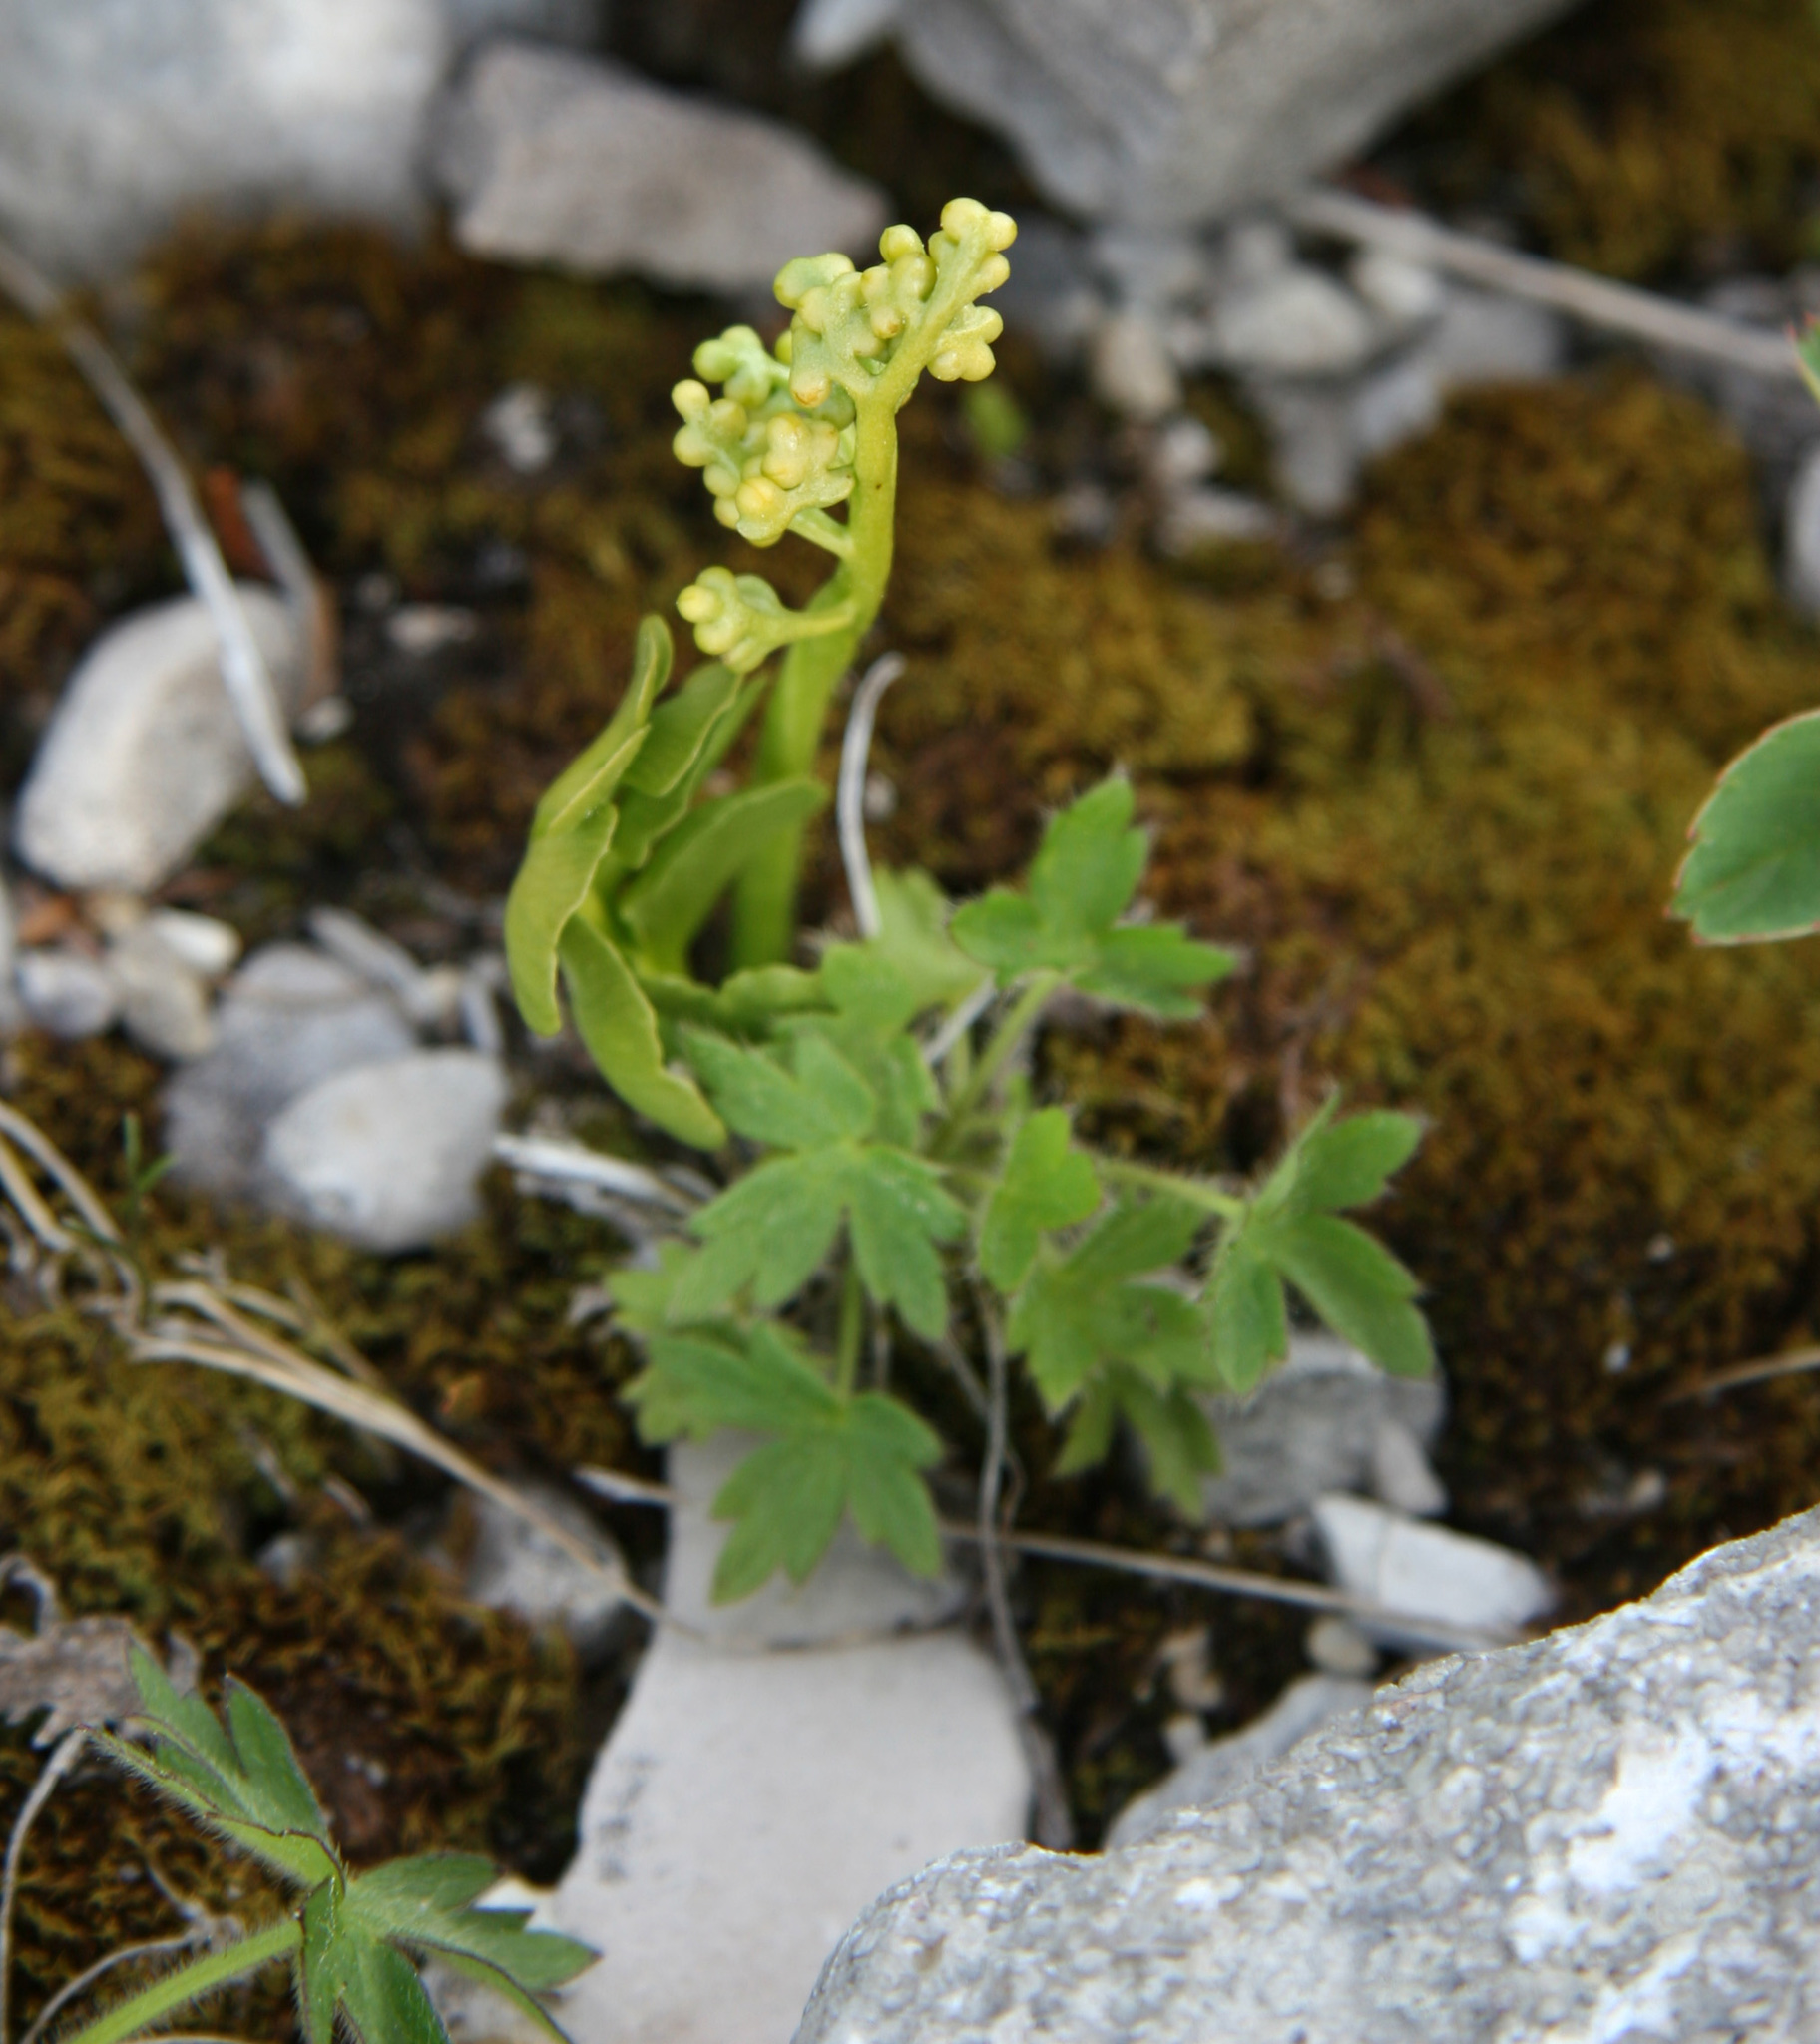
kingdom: Plantae
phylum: Tracheophyta
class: Polypodiopsida
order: Ophioglossales
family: Ophioglossaceae
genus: Botrychium
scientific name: Botrychium lunaria
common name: Moonwort
